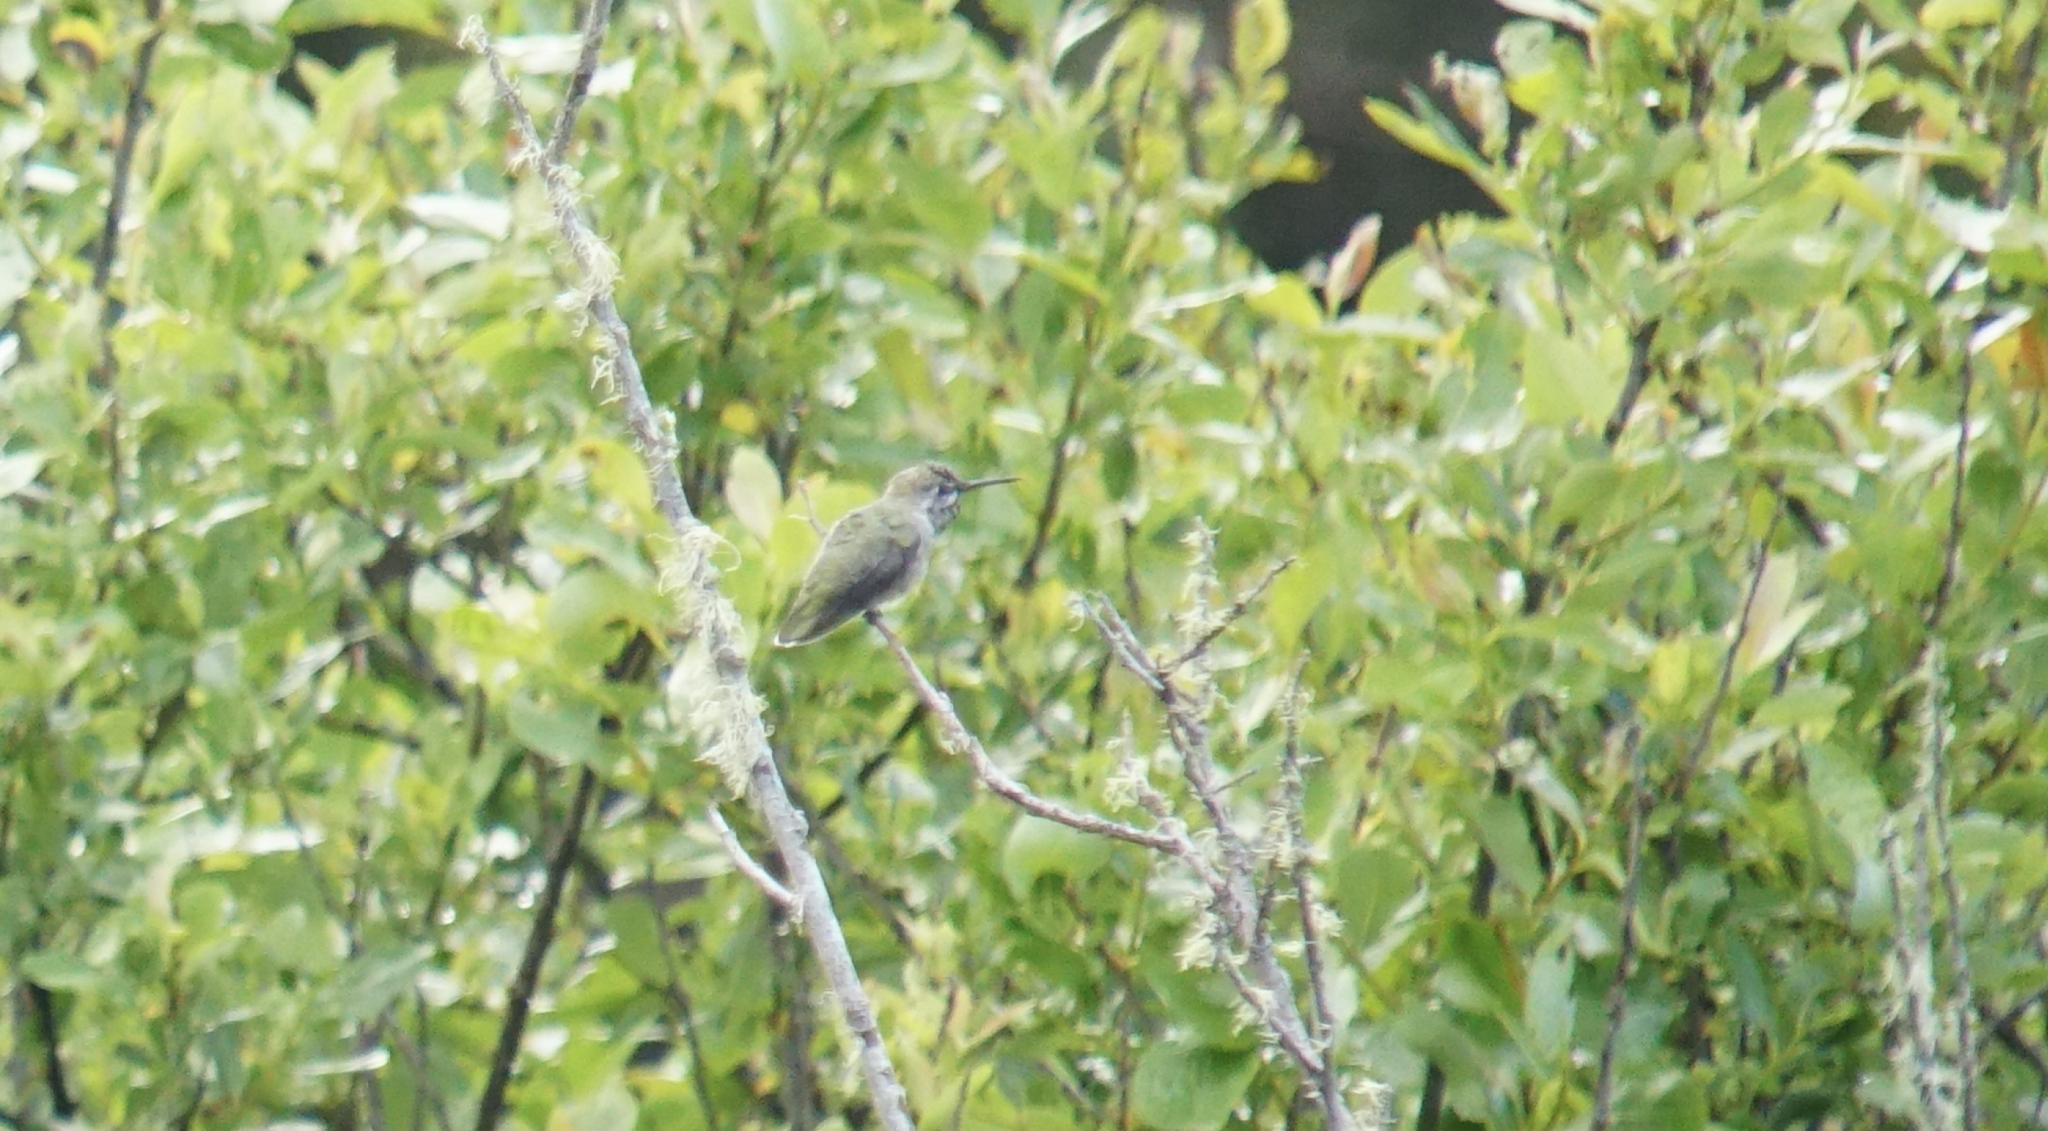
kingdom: Animalia
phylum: Chordata
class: Aves
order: Apodiformes
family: Trochilidae
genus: Calypte
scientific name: Calypte anna
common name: Anna's hummingbird
